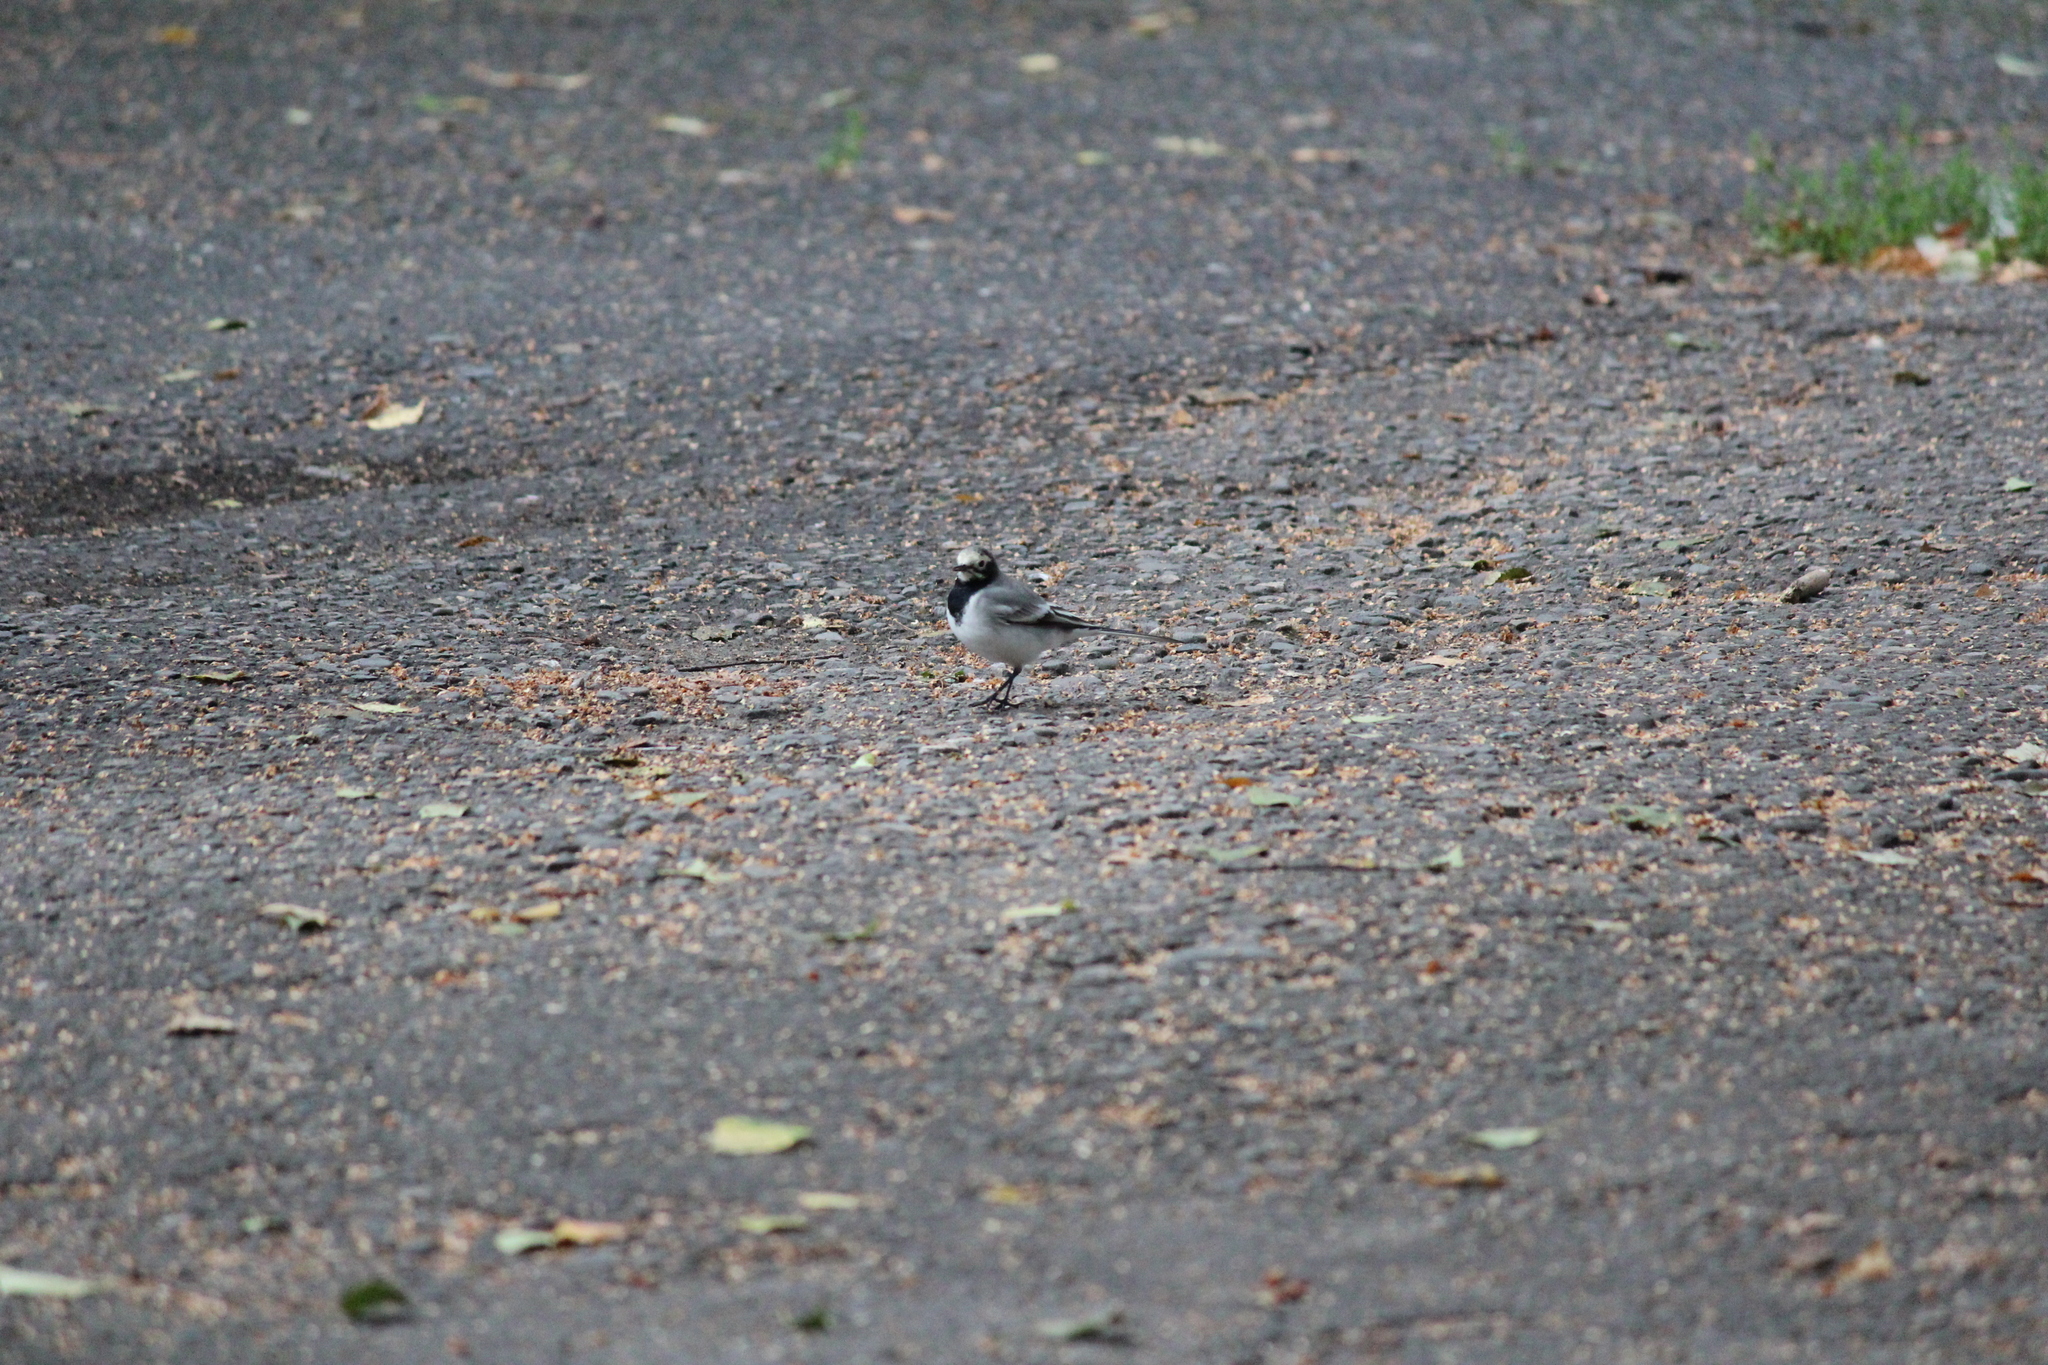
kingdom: Animalia
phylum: Chordata
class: Aves
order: Passeriformes
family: Motacillidae
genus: Motacilla
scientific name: Motacilla alba
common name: White wagtail
